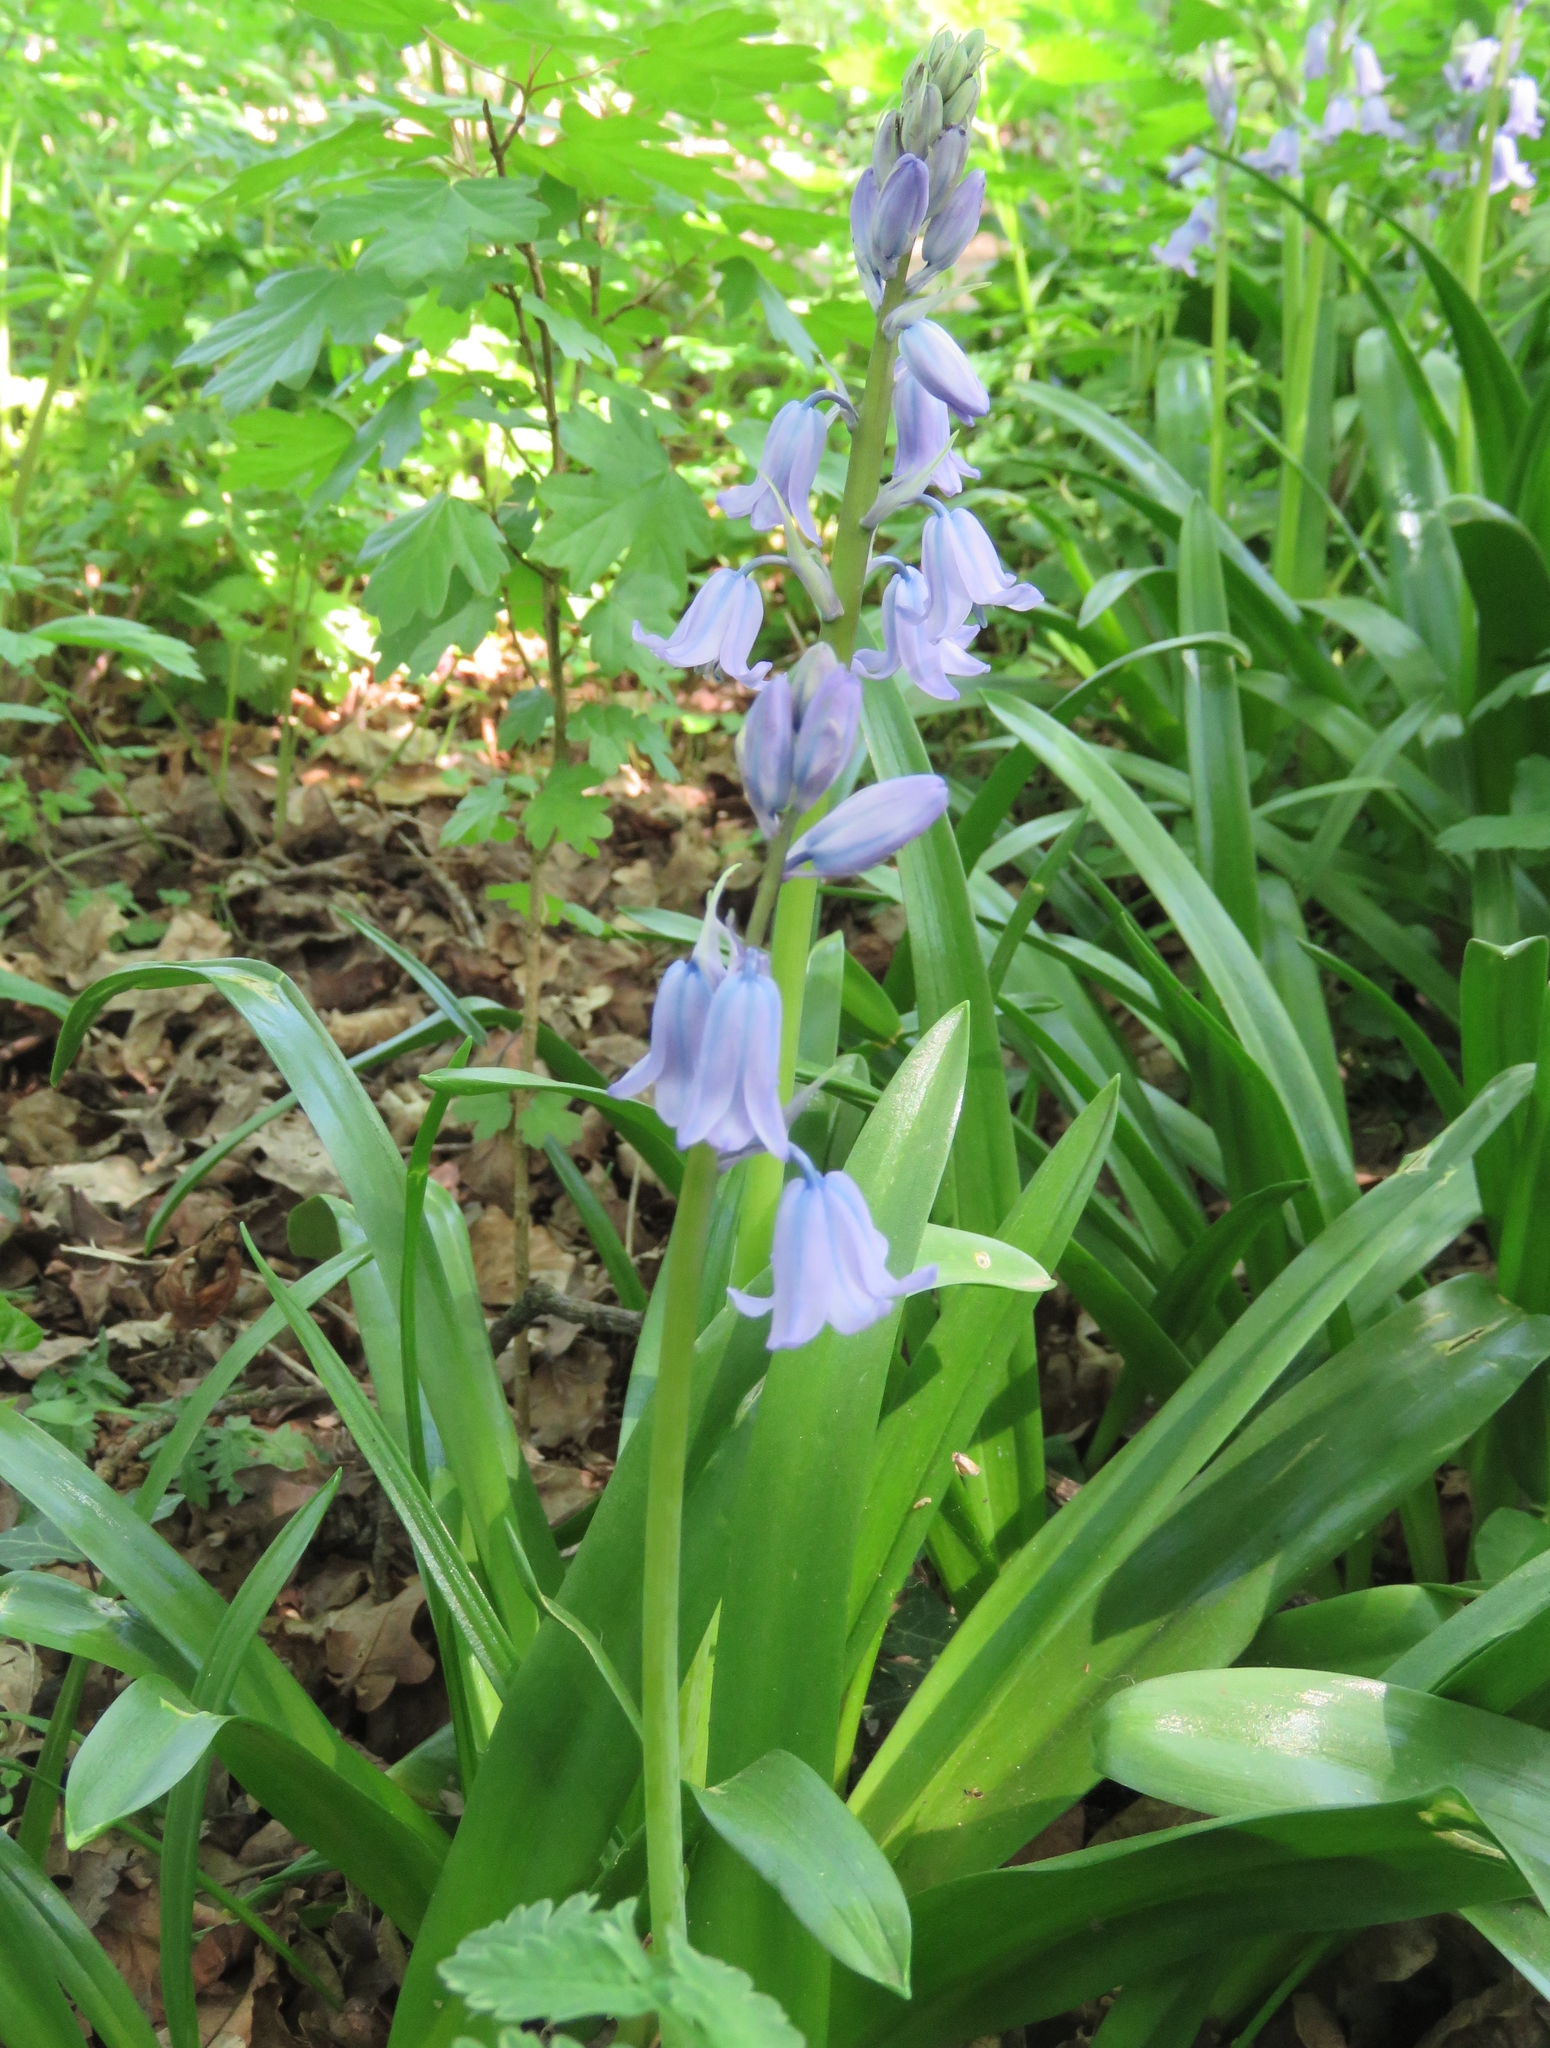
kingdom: Plantae
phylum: Tracheophyta
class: Liliopsida
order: Asparagales
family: Asparagaceae
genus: Hyacinthoides
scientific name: Hyacinthoides hispanica
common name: Spanish bluebell
